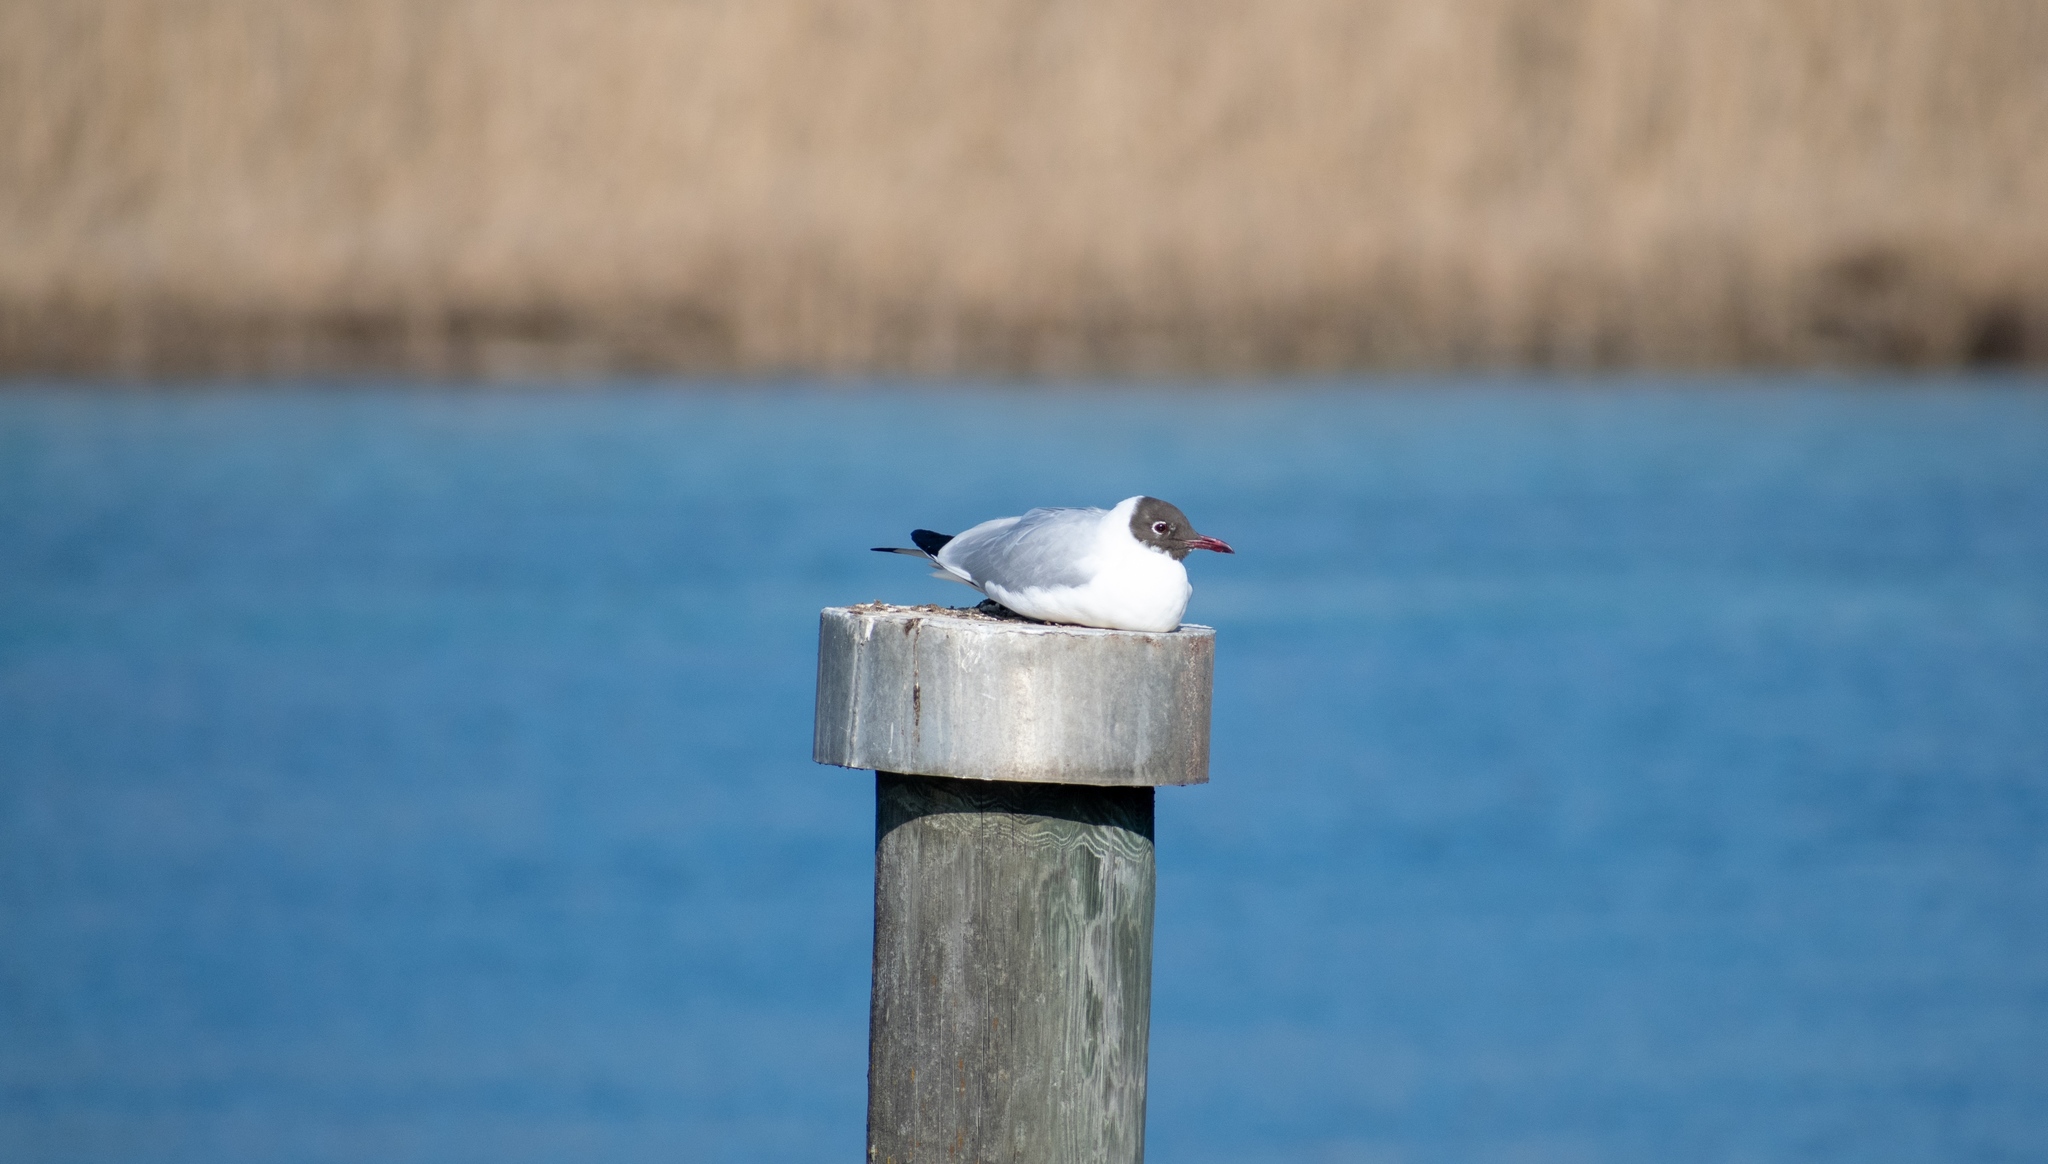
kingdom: Animalia
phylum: Chordata
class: Aves
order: Charadriiformes
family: Laridae
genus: Chroicocephalus
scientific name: Chroicocephalus ridibundus
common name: Black-headed gull
